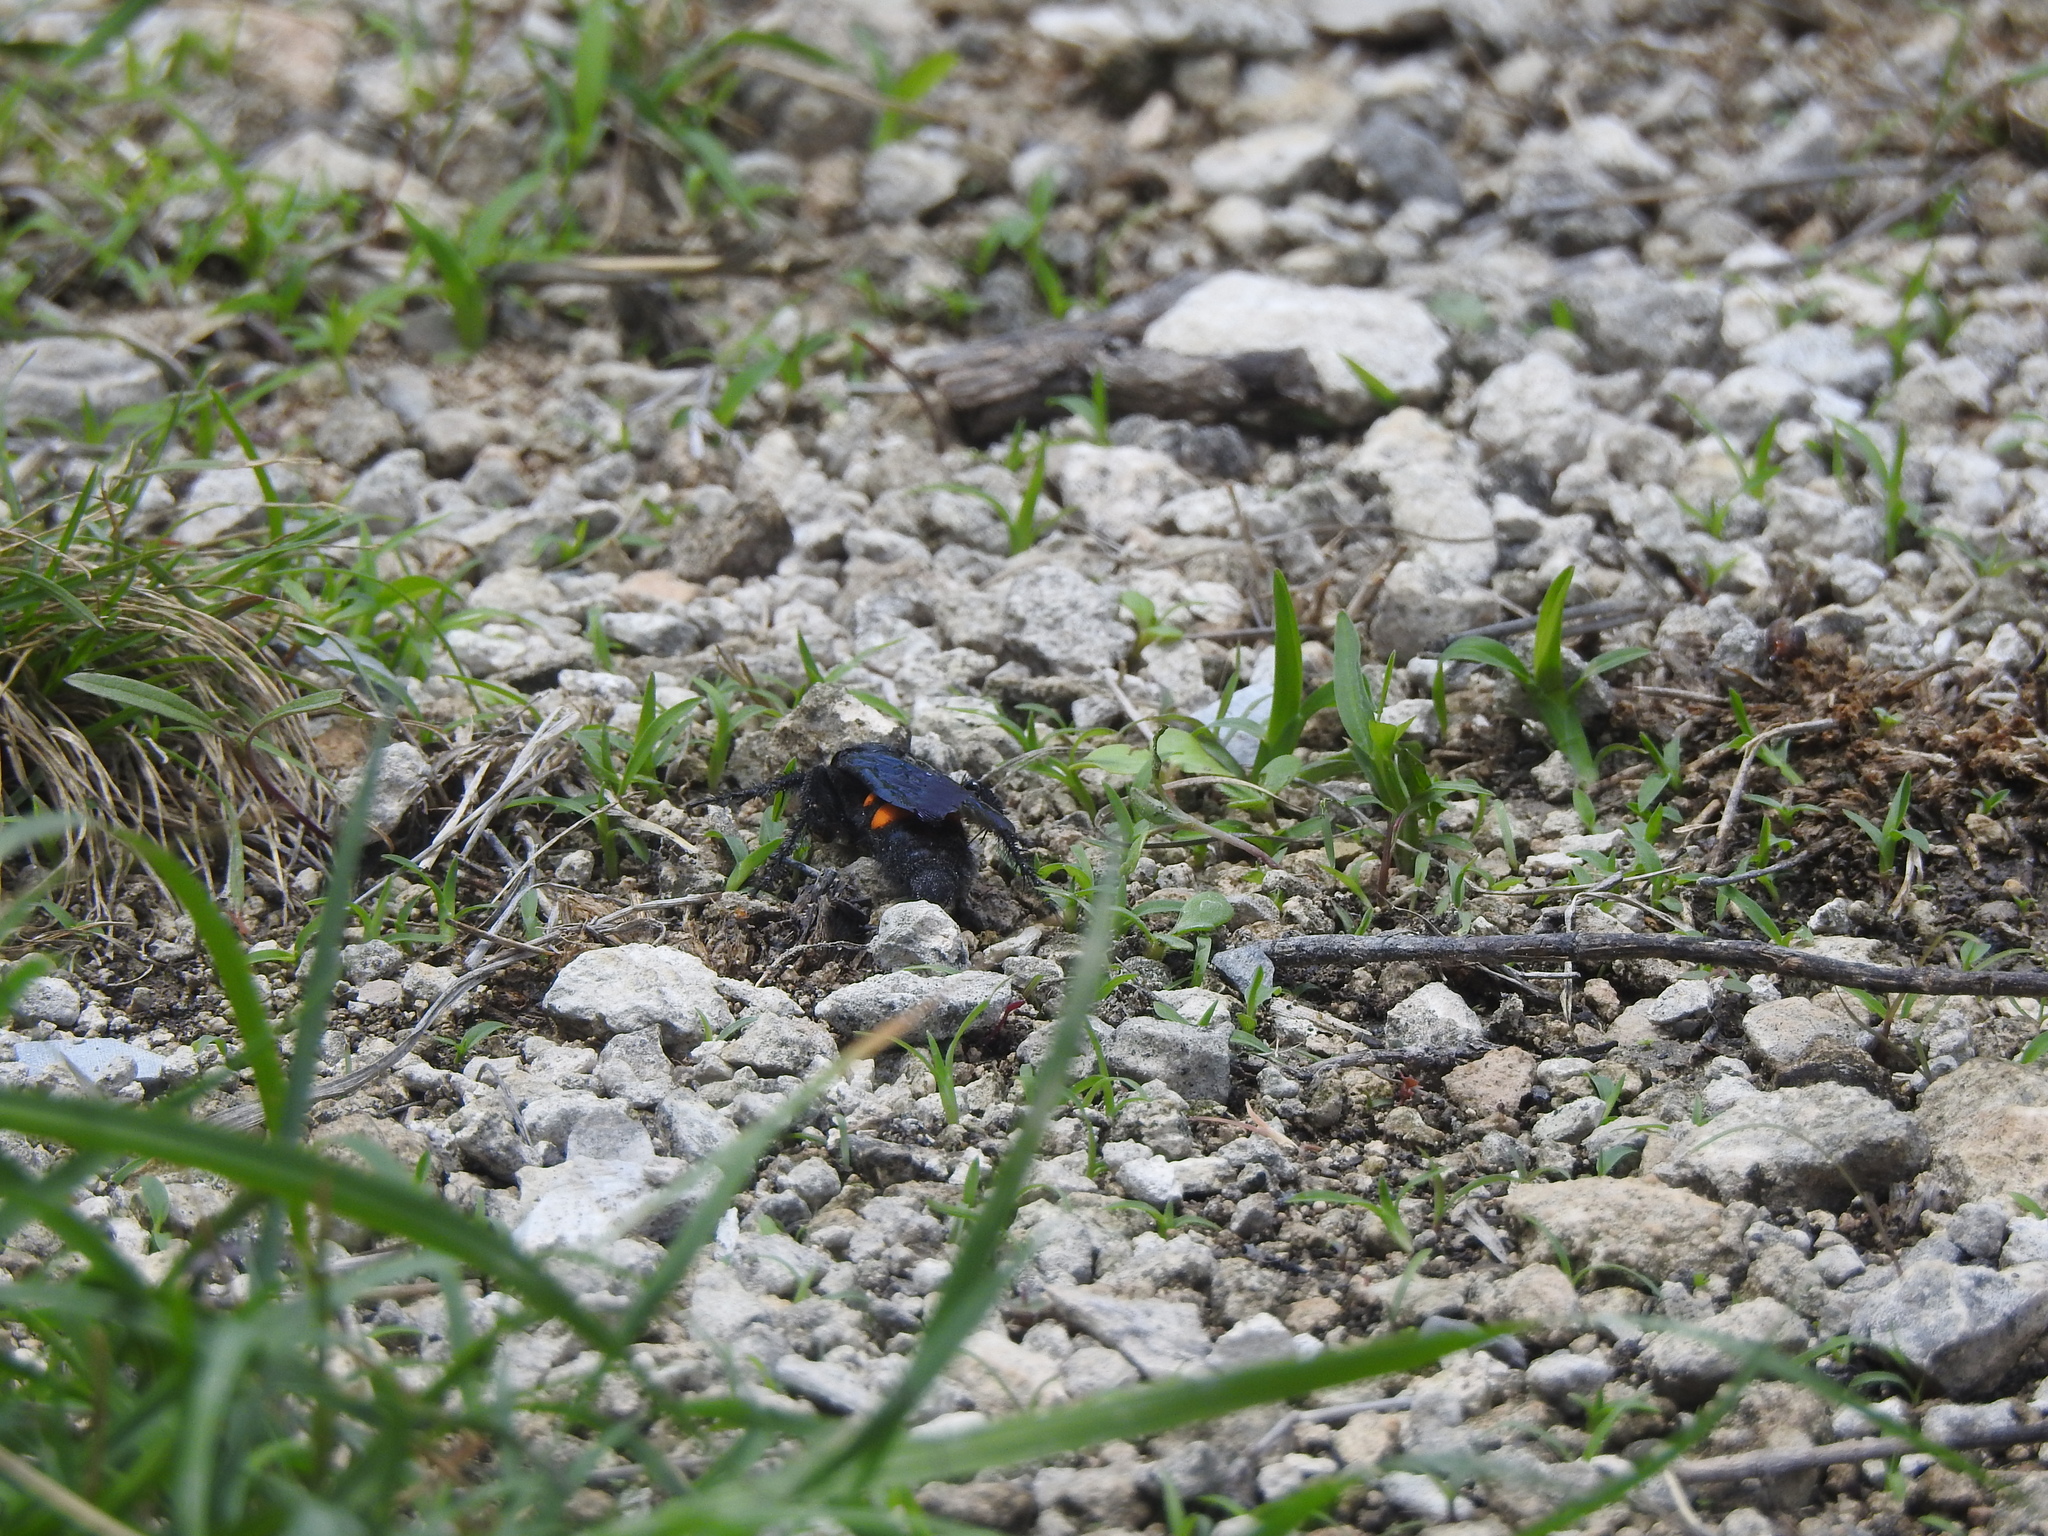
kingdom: Animalia
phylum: Arthropoda
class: Insecta
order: Hymenoptera
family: Scoliidae
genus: Pygodasis
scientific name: Pygodasis ephippium
